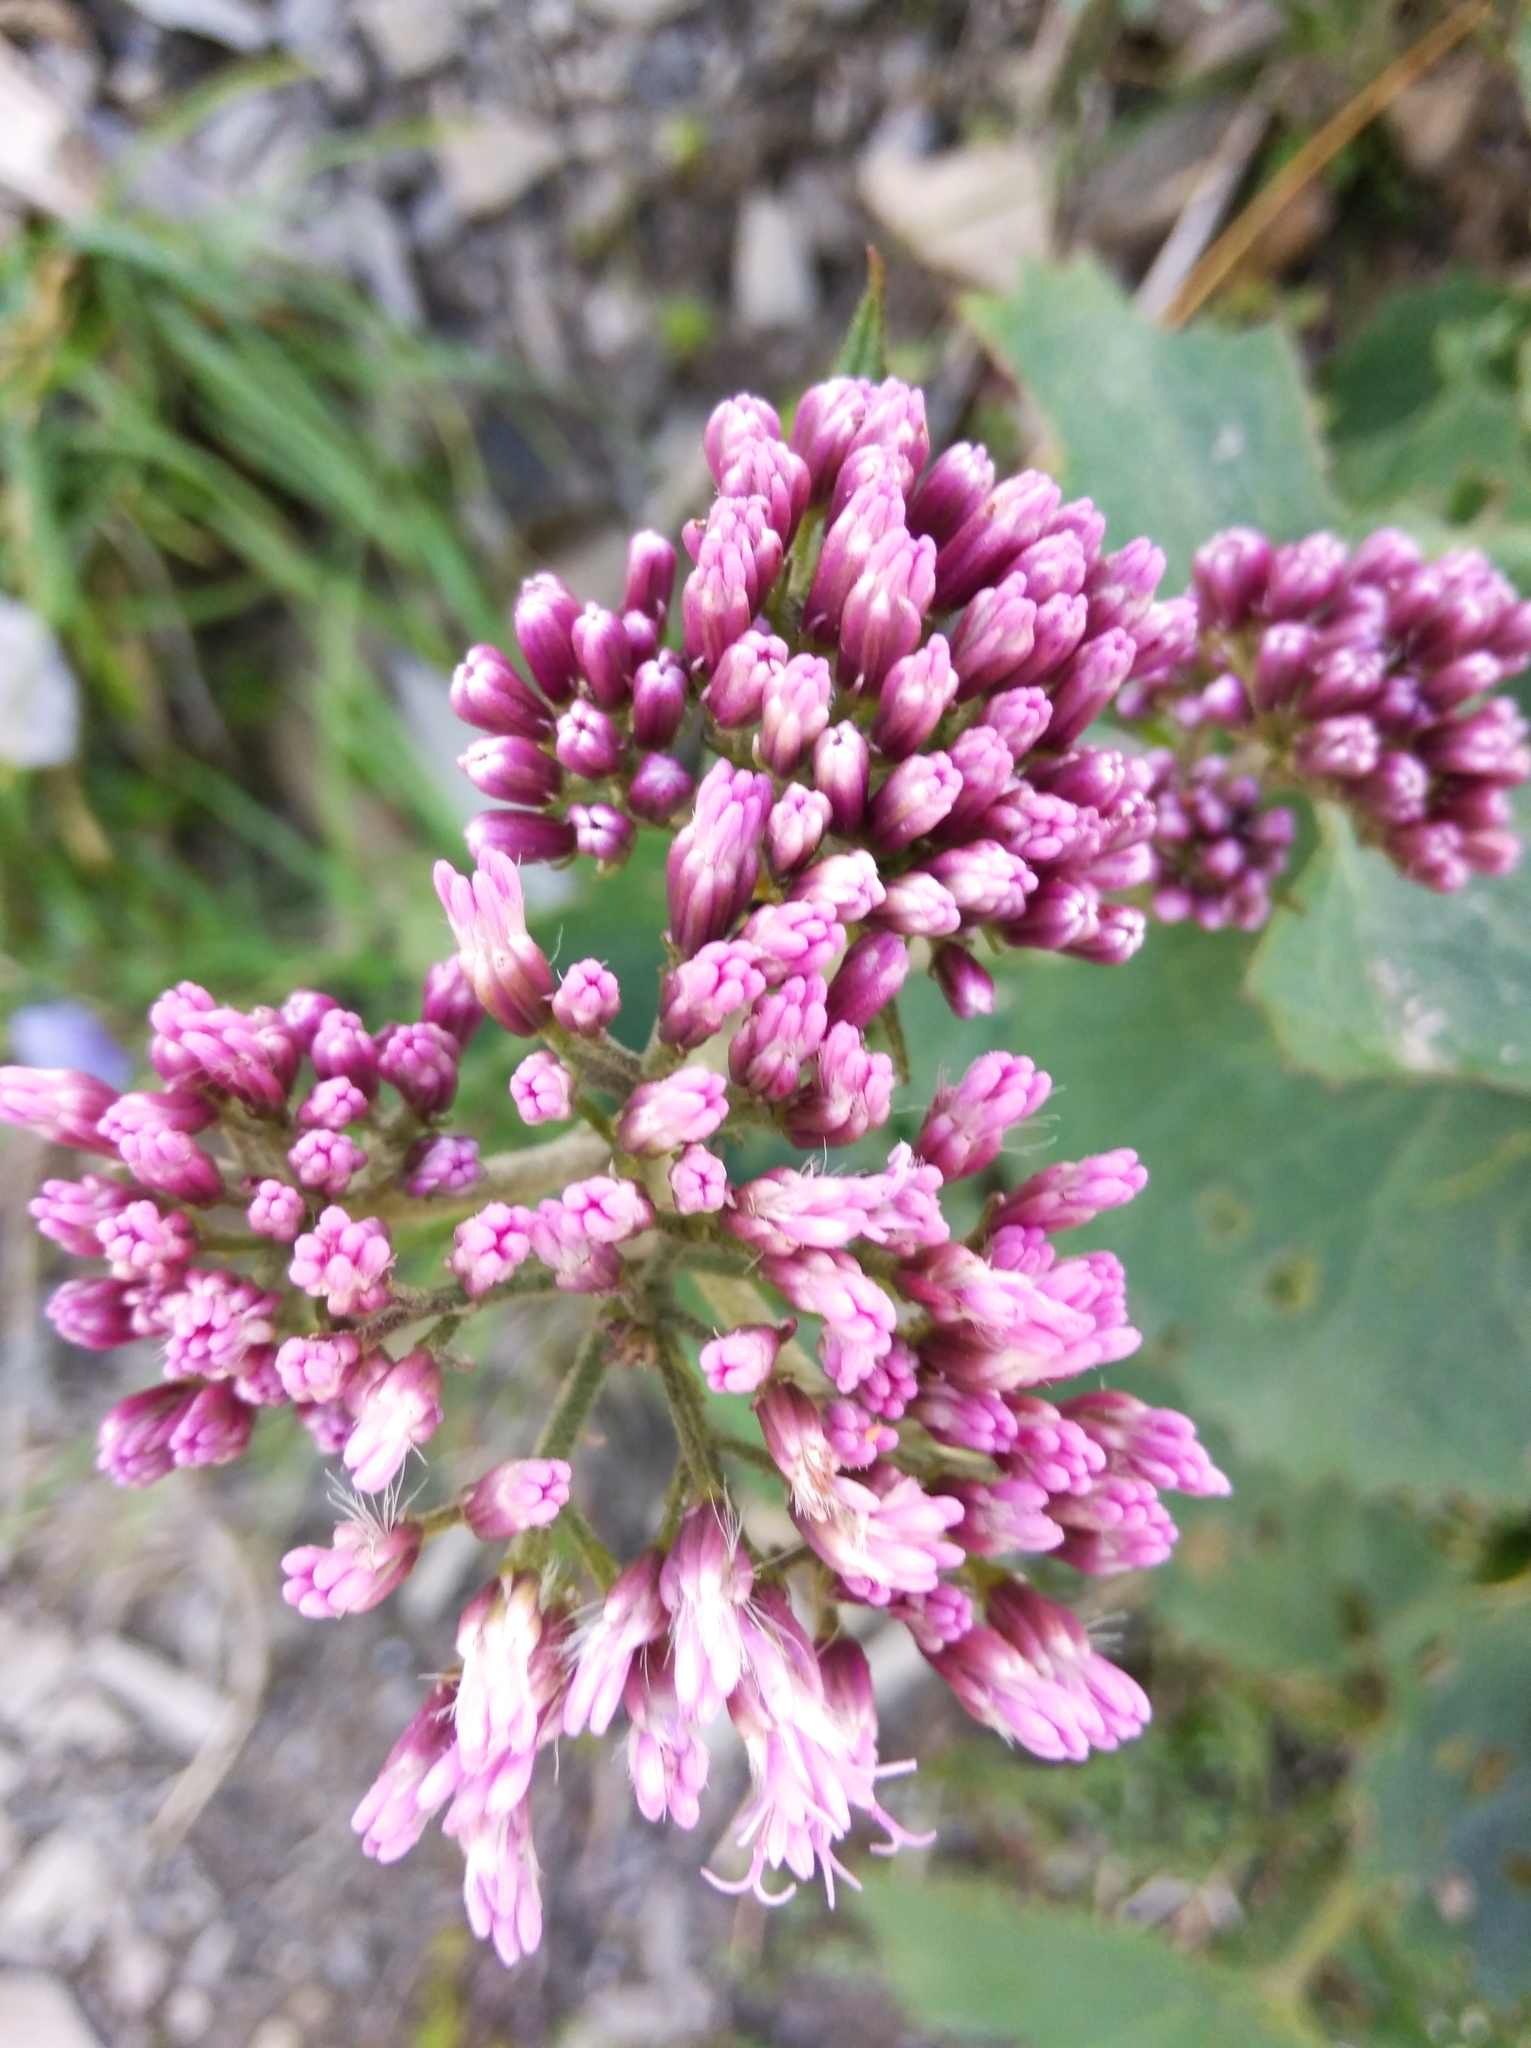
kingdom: Plantae
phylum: Tracheophyta
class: Magnoliopsida
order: Asterales
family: Asteraceae
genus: Adenostyles
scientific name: Adenostyles alliariae
